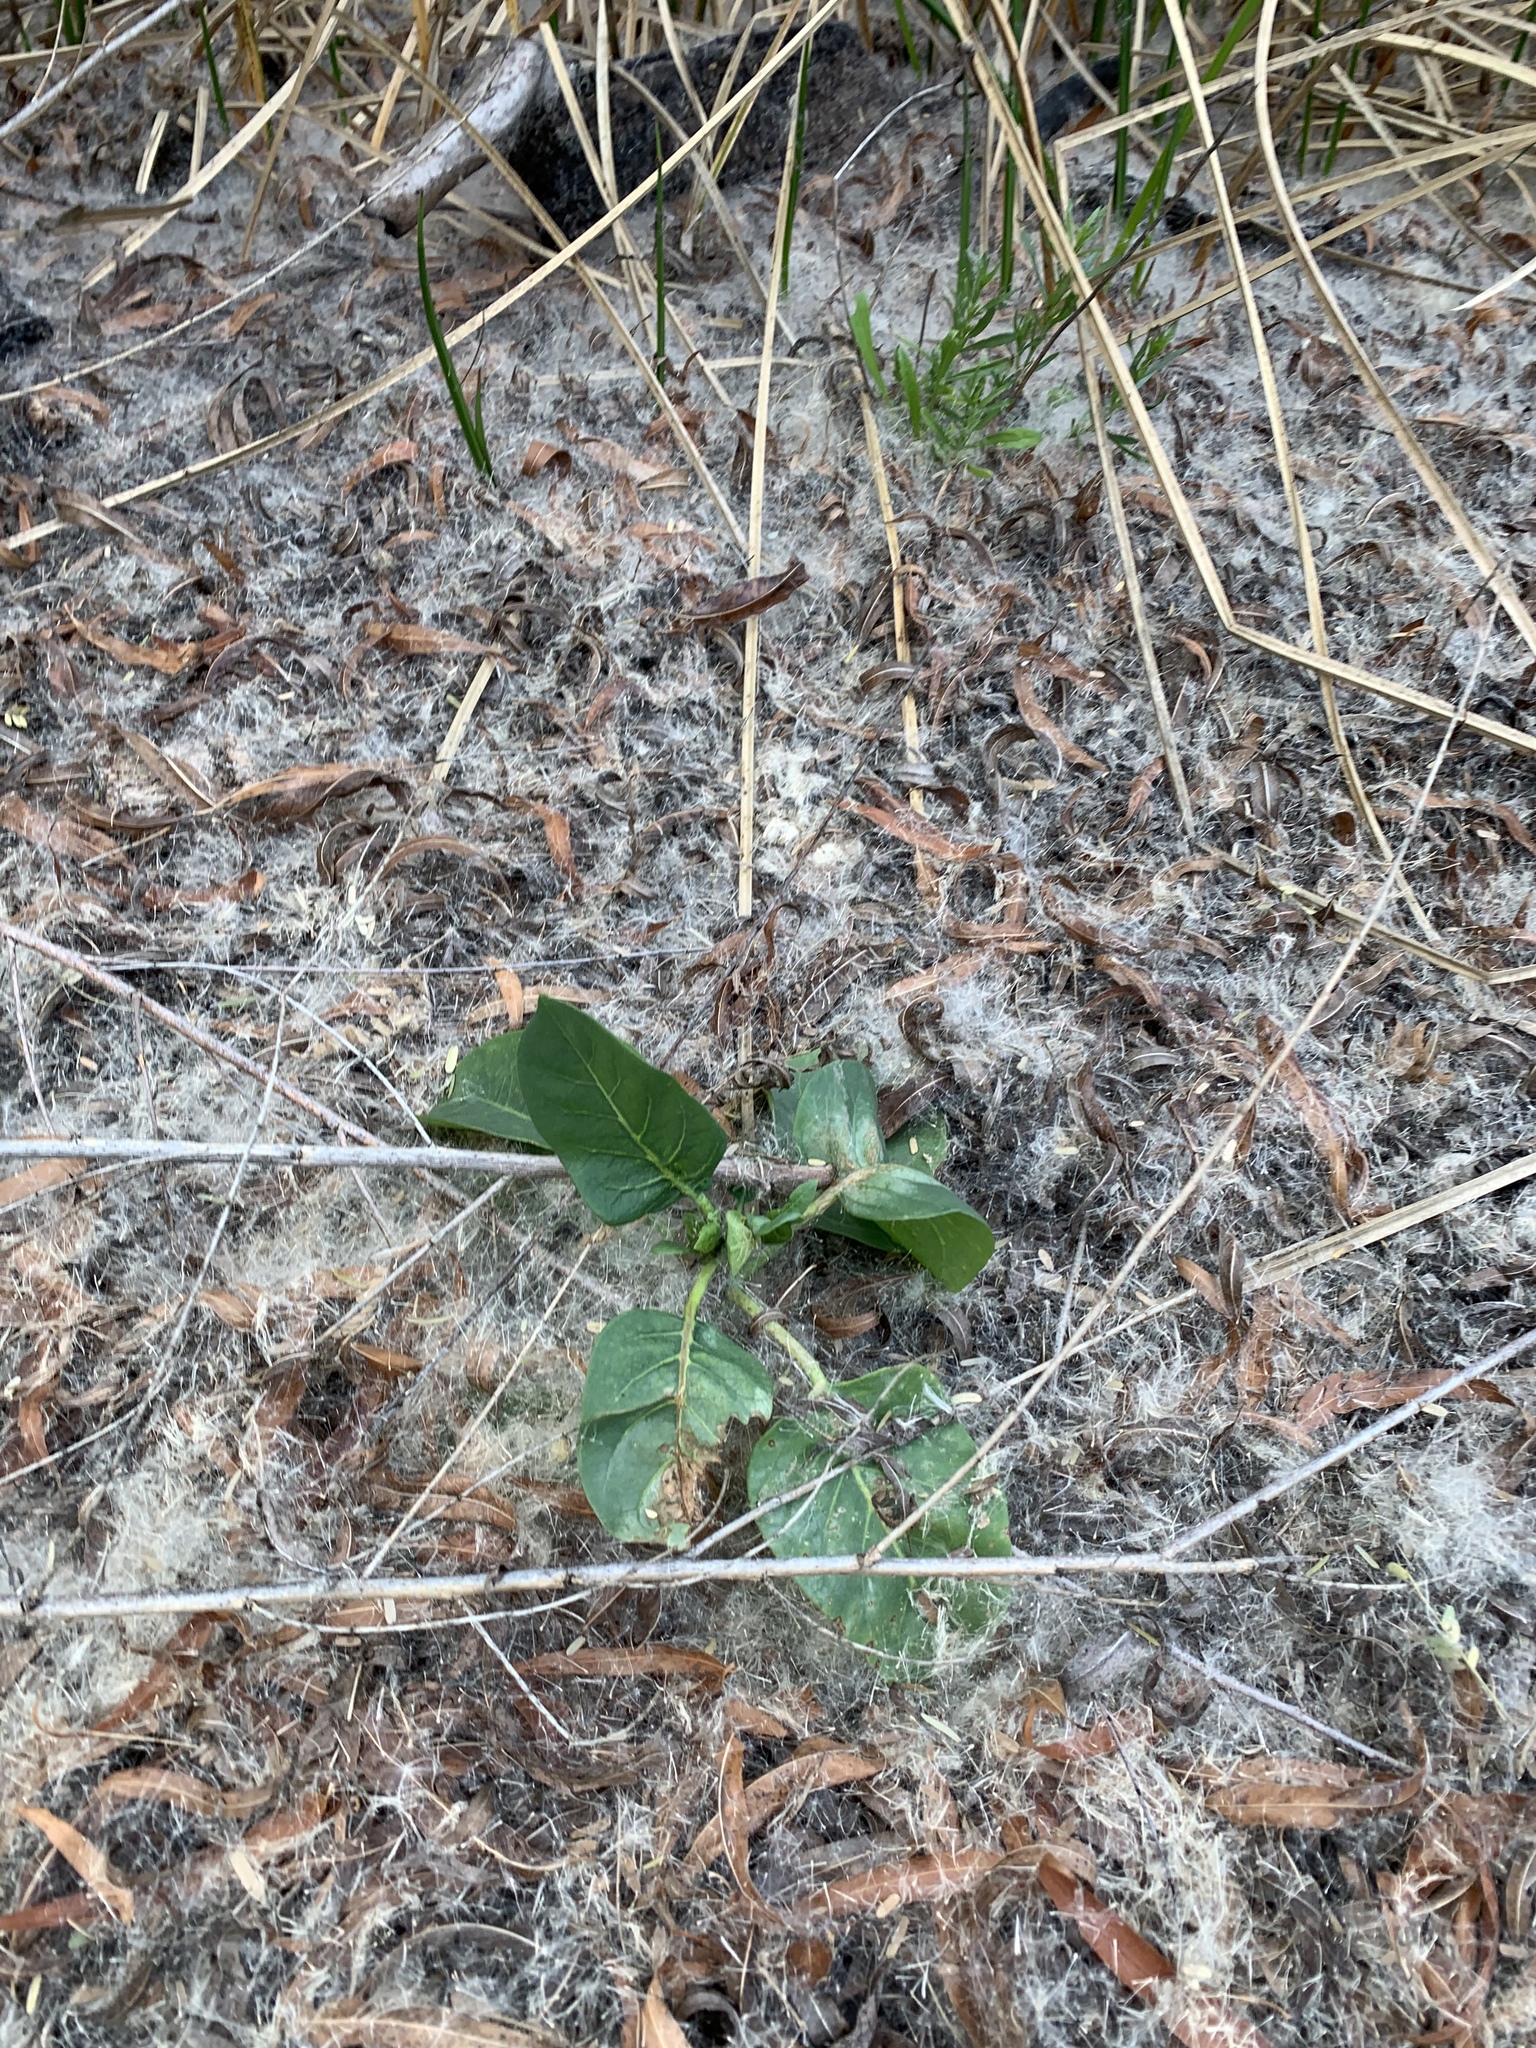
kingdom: Plantae
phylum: Tracheophyta
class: Magnoliopsida
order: Piperales
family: Saururaceae
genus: Anemopsis
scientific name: Anemopsis californica
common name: Apache-beads
